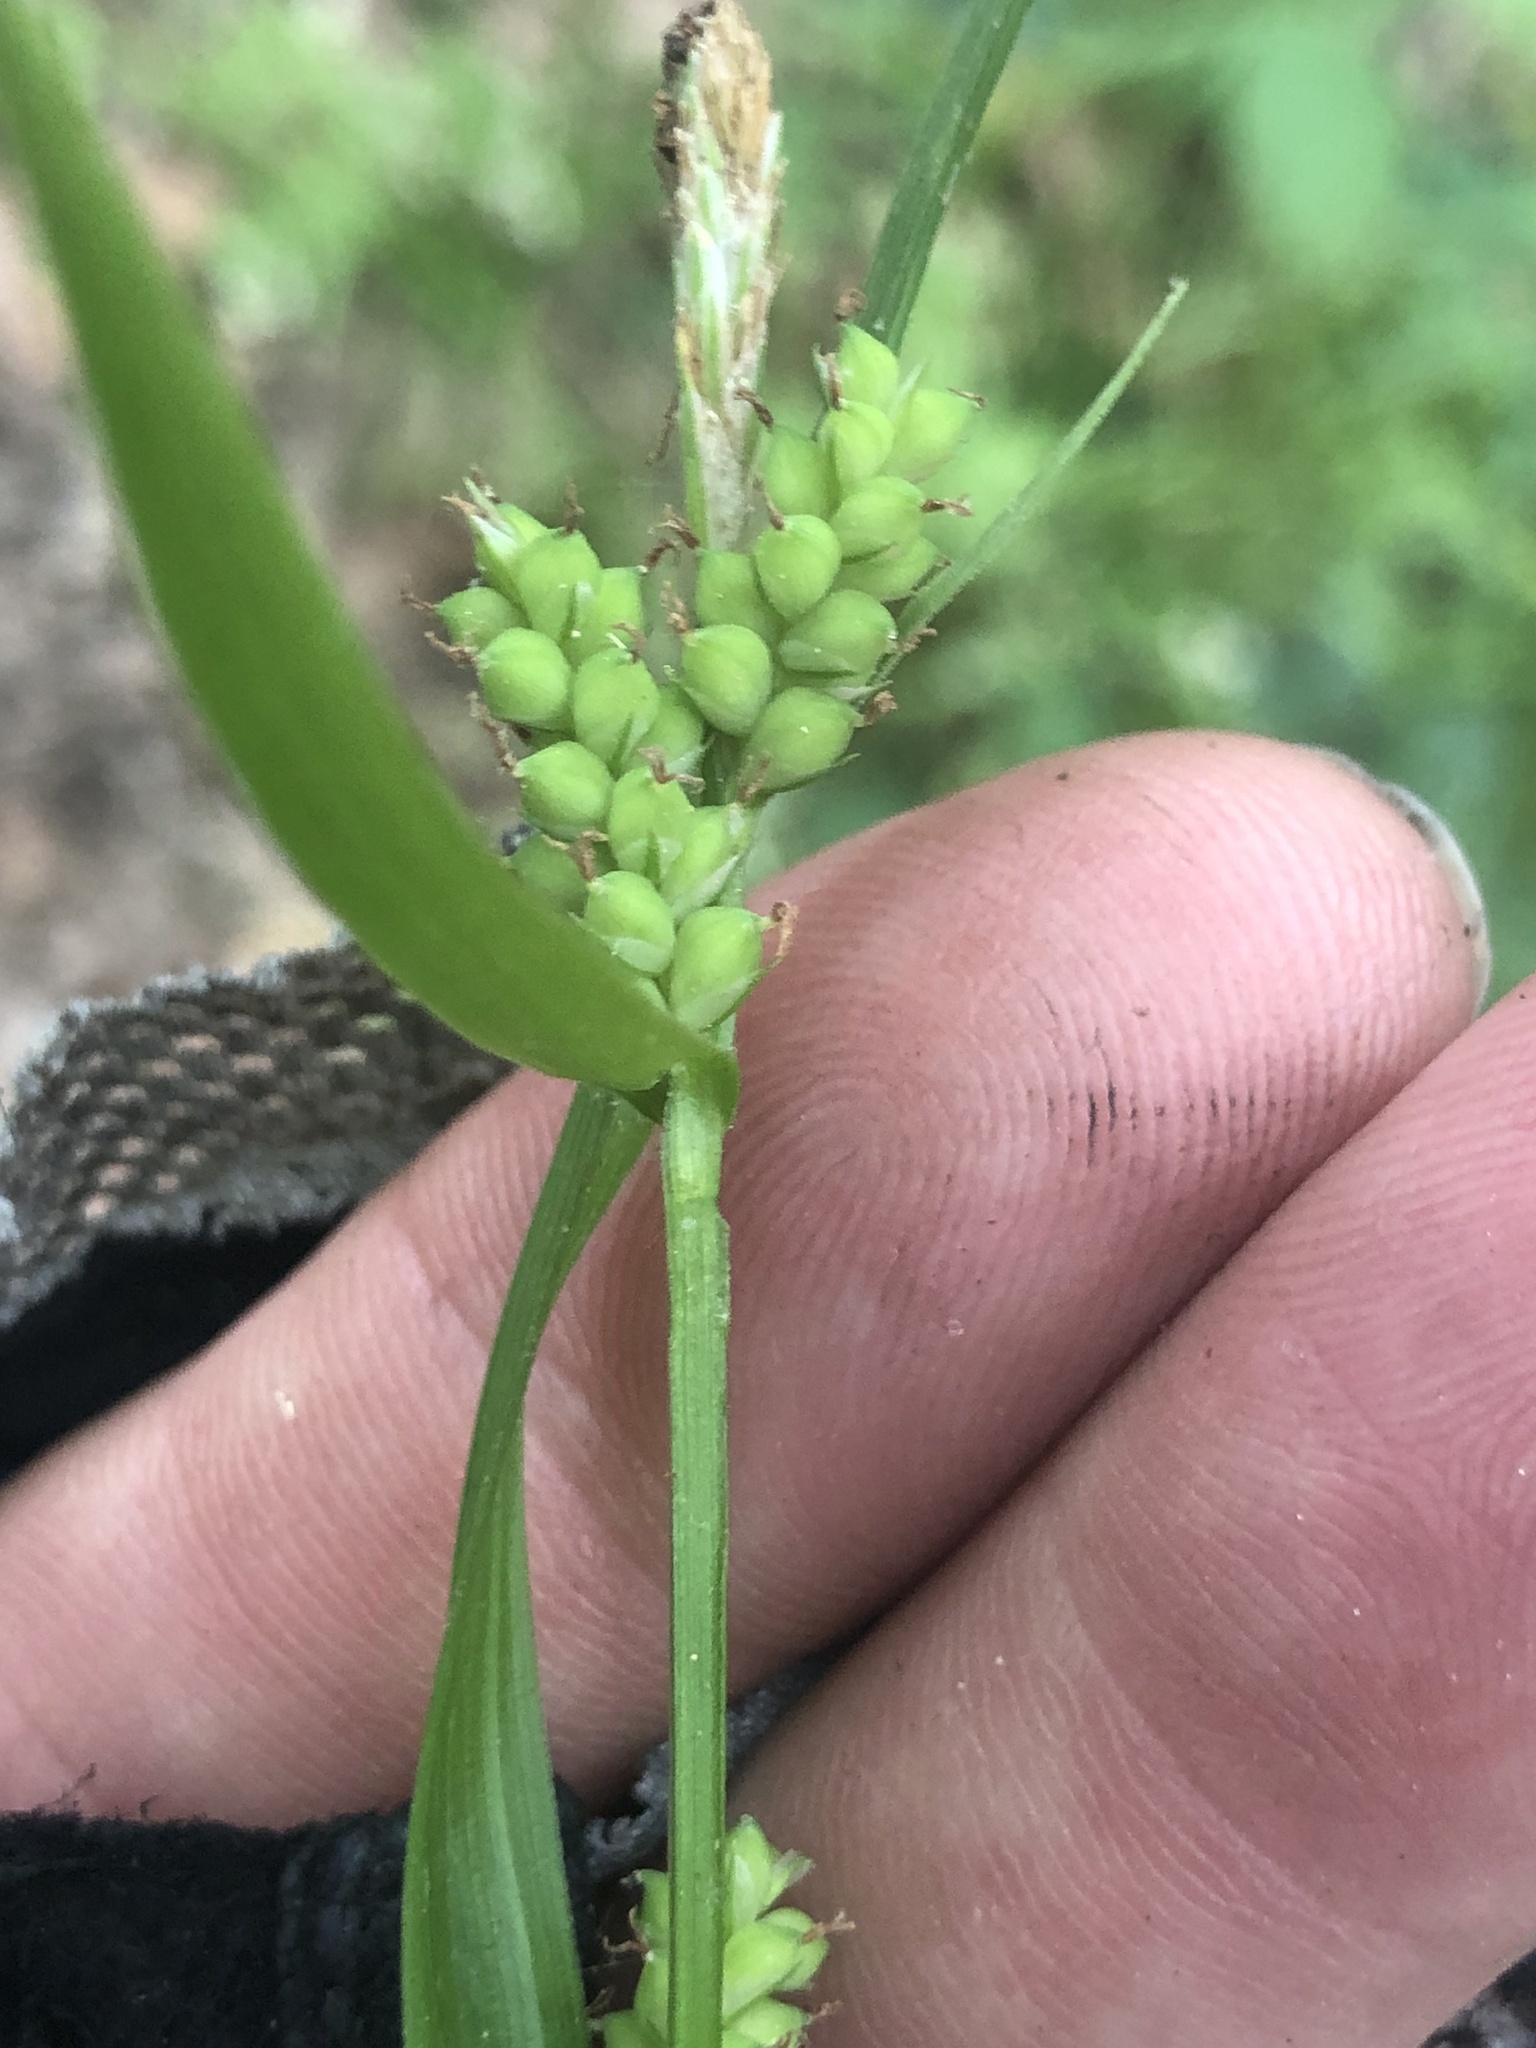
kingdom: Plantae
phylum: Tracheophyta
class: Liliopsida
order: Poales
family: Cyperaceae
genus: Carex
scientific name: Carex blanda
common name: Bland sedge
